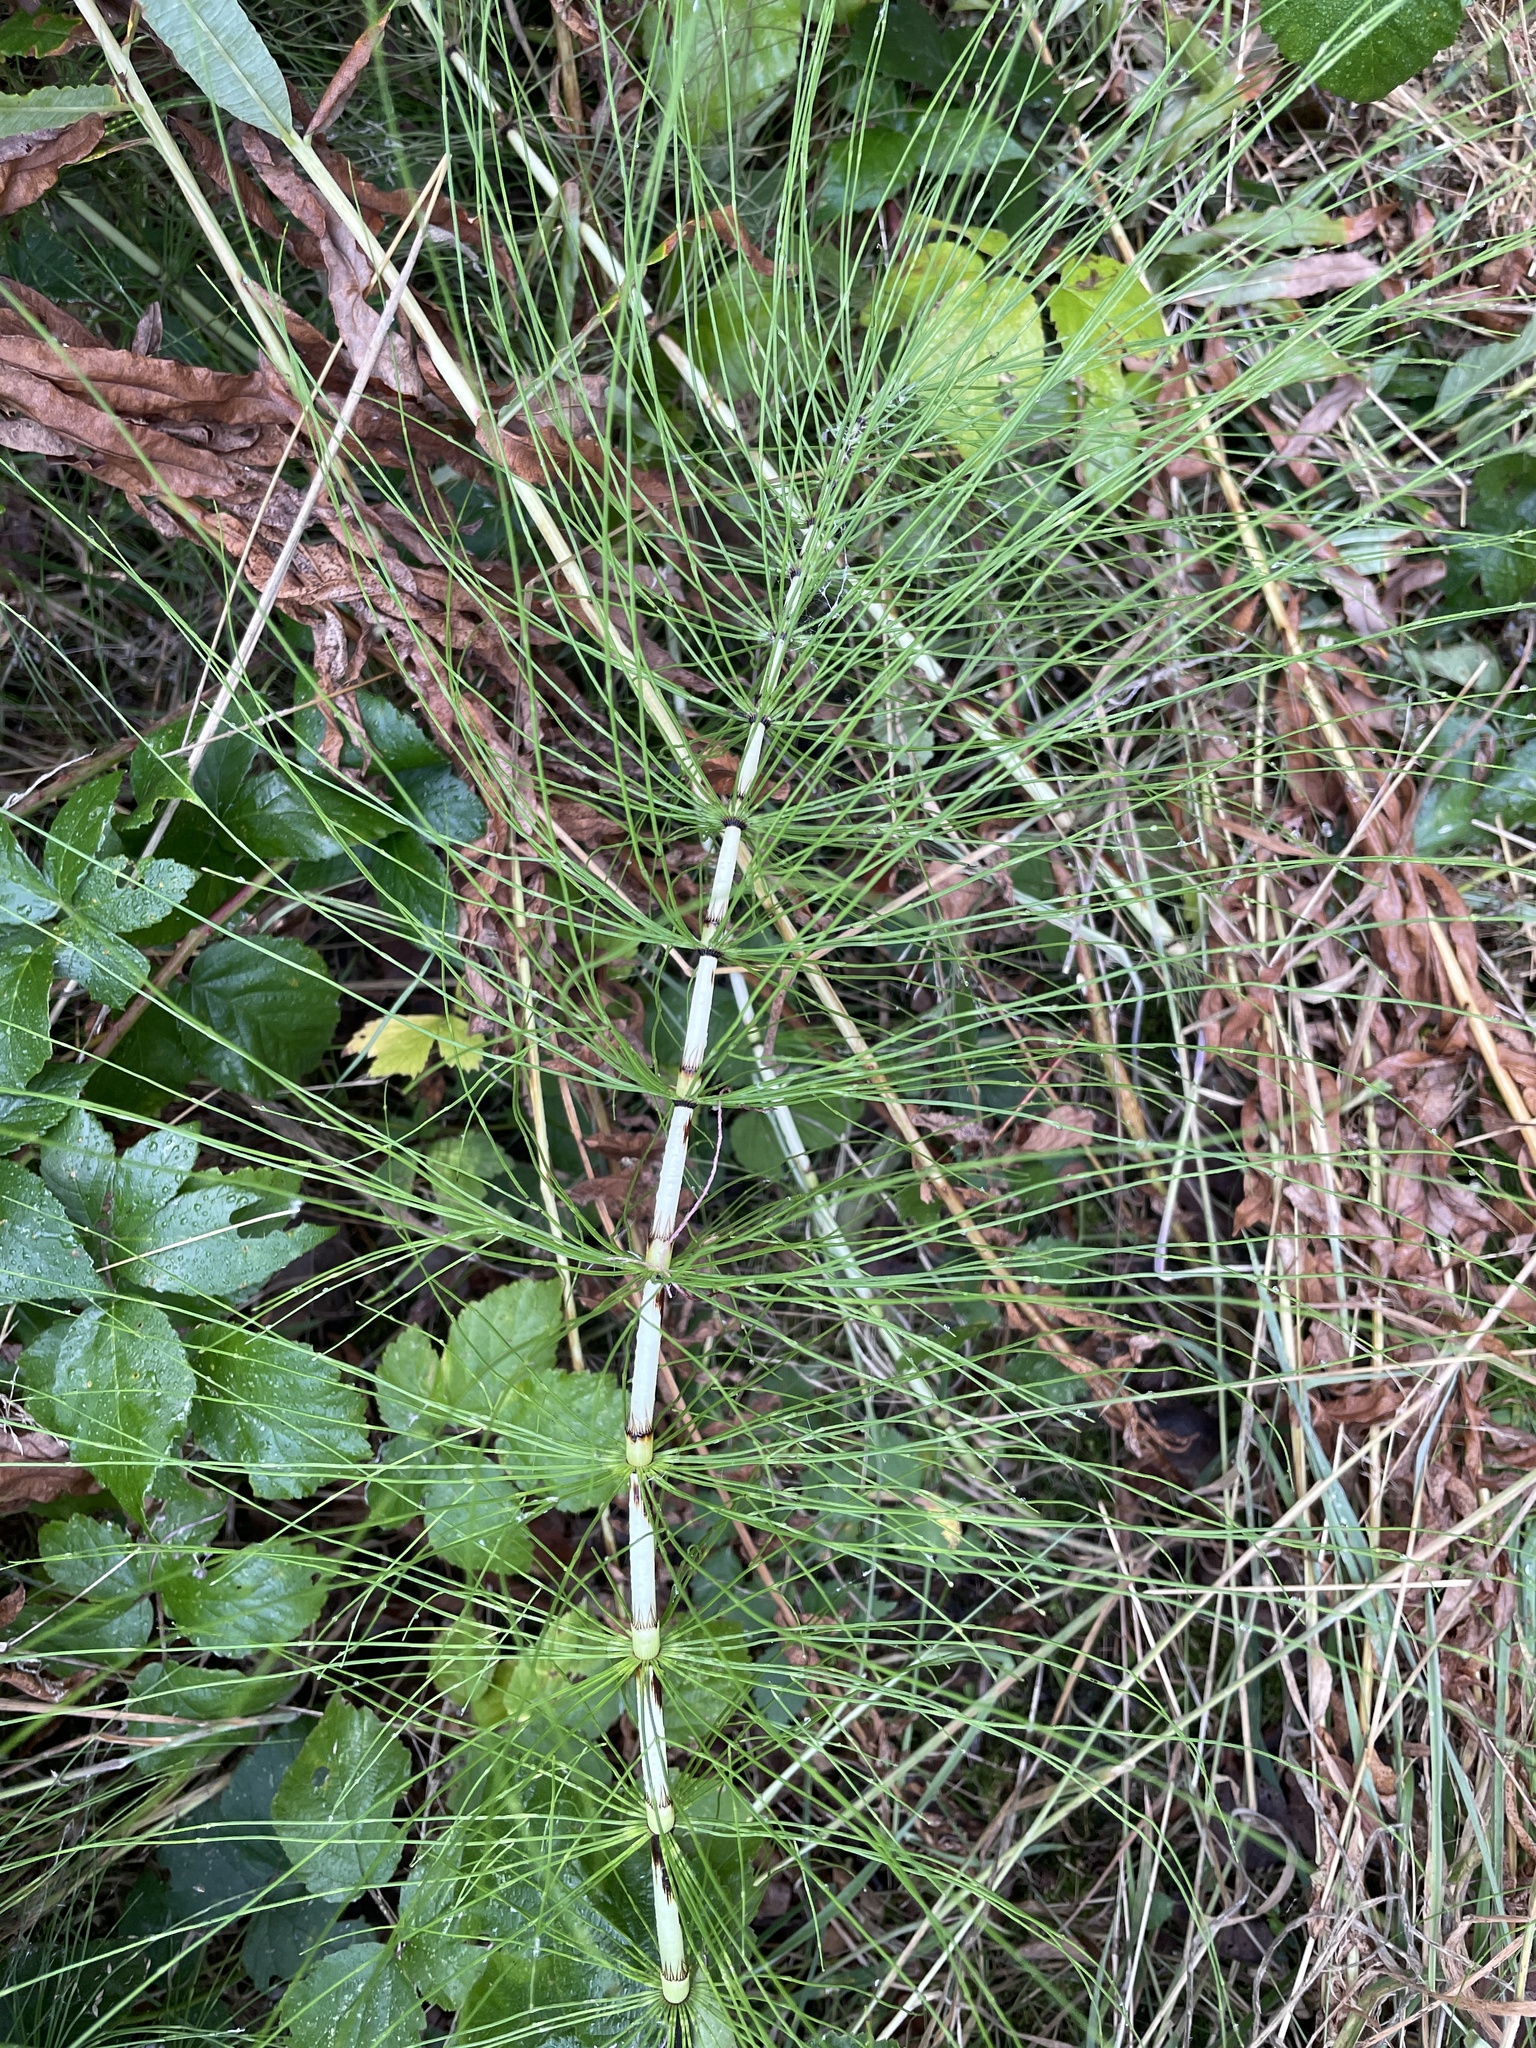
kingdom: Plantae
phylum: Tracheophyta
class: Polypodiopsida
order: Equisetales
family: Equisetaceae
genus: Equisetum
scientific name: Equisetum telmateia
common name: Great horsetail
